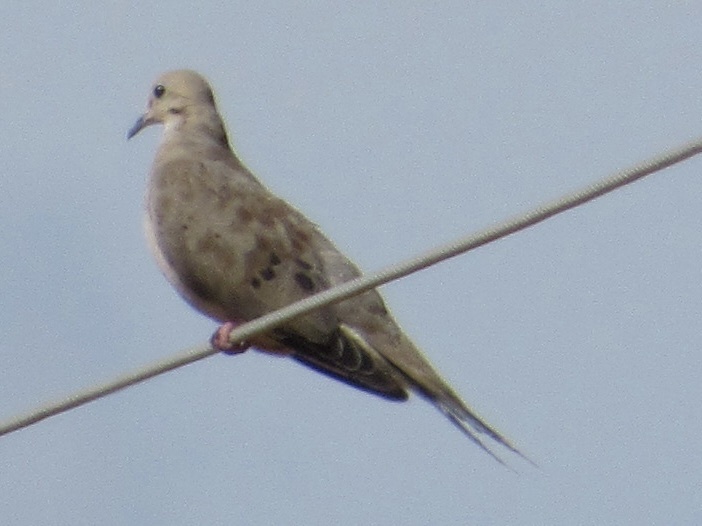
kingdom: Animalia
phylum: Chordata
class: Aves
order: Columbiformes
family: Columbidae
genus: Zenaida
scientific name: Zenaida macroura
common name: Mourning dove
